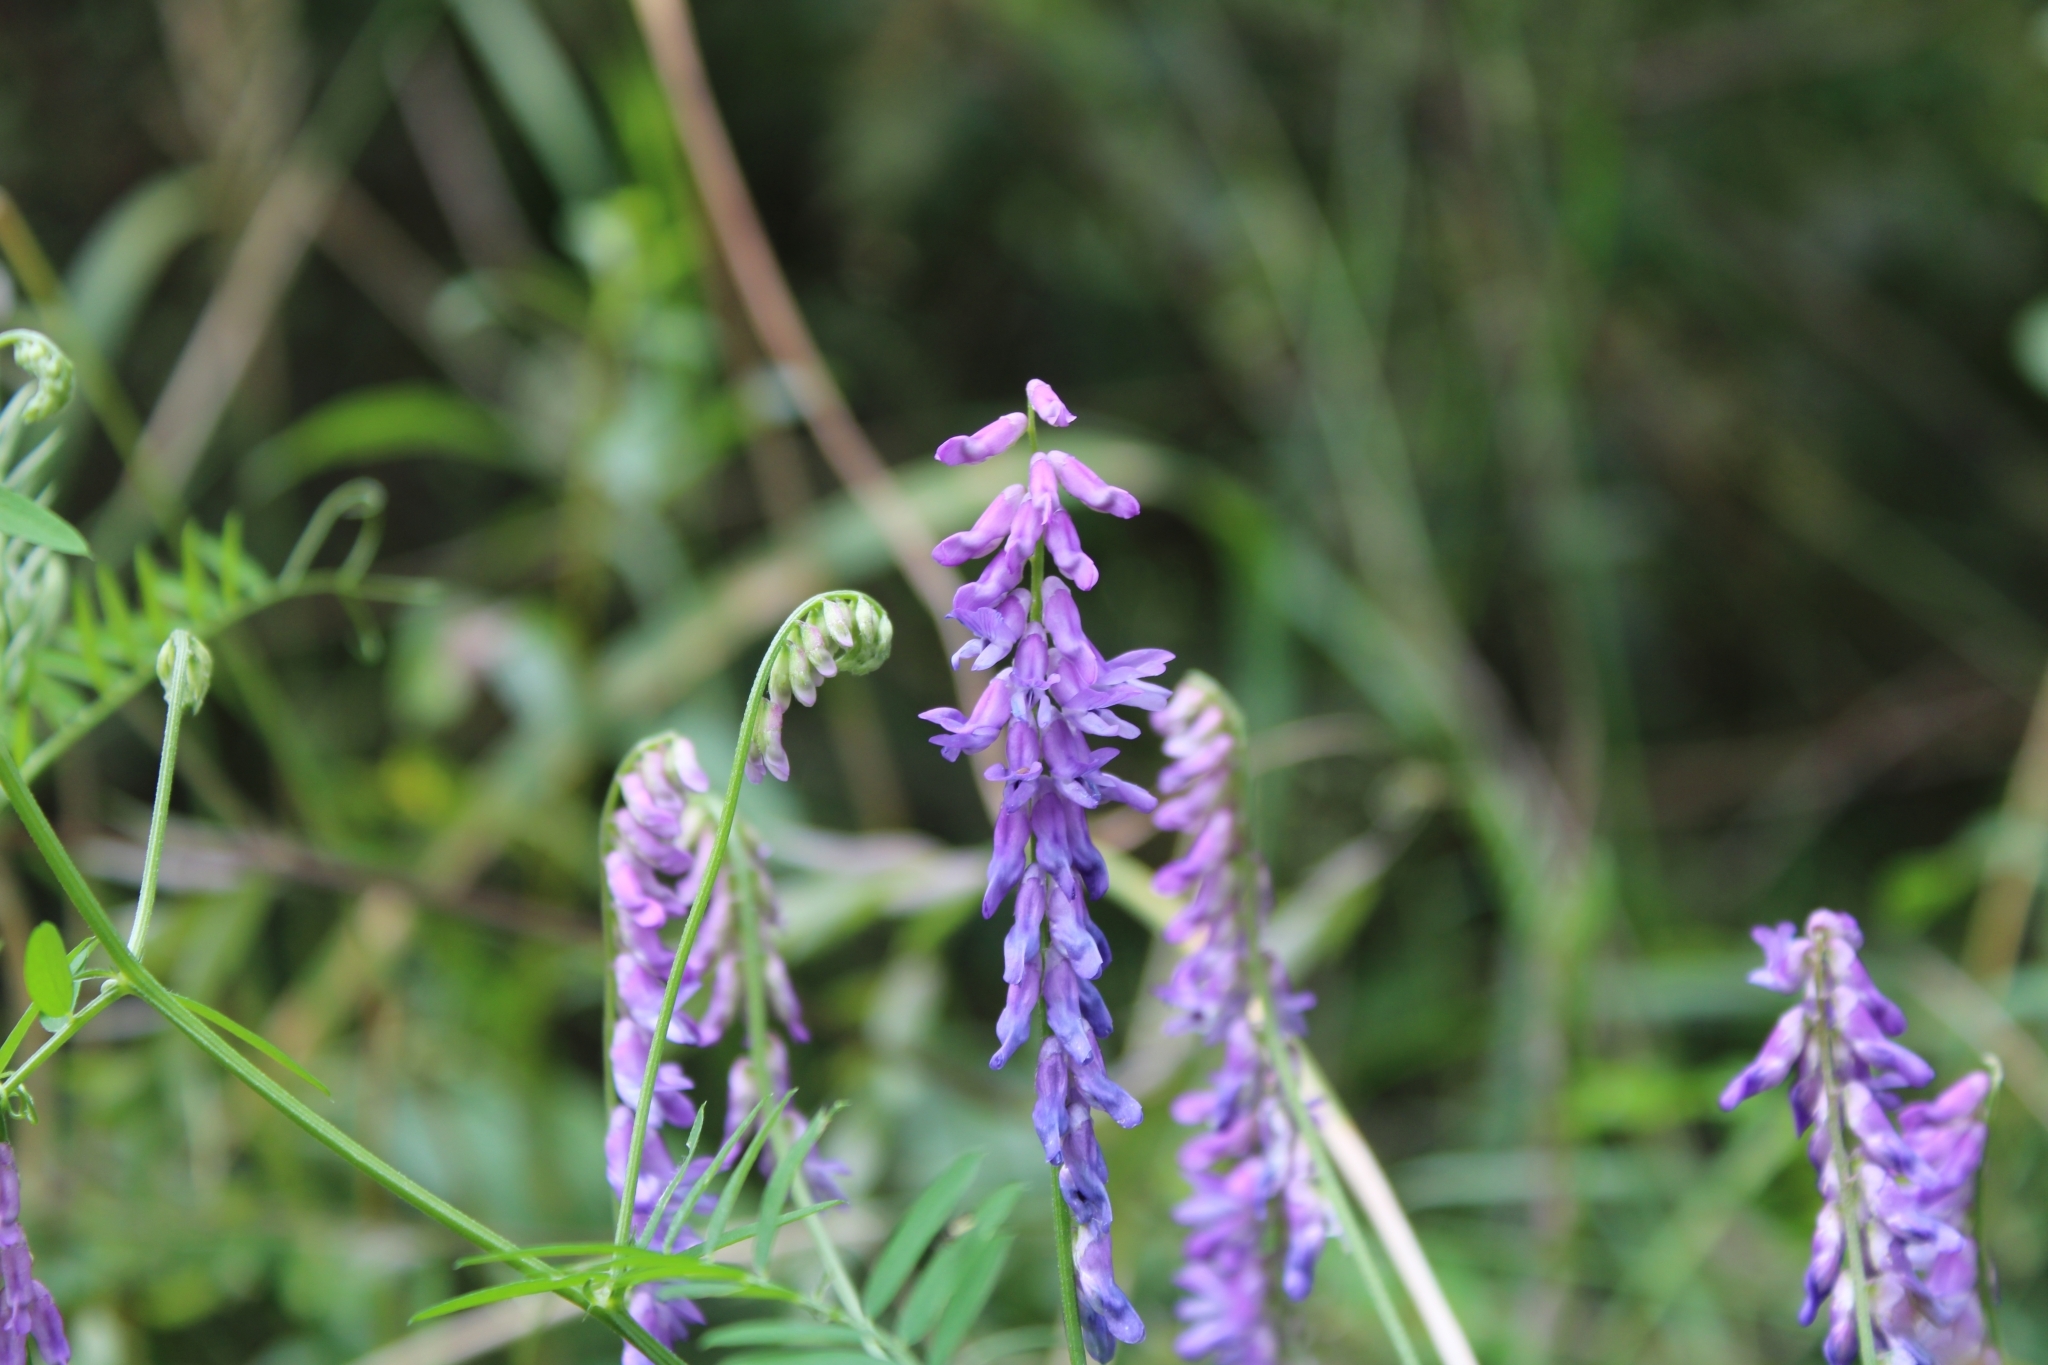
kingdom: Plantae
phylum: Tracheophyta
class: Magnoliopsida
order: Fabales
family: Fabaceae
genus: Vicia
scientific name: Vicia cracca
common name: Bird vetch
